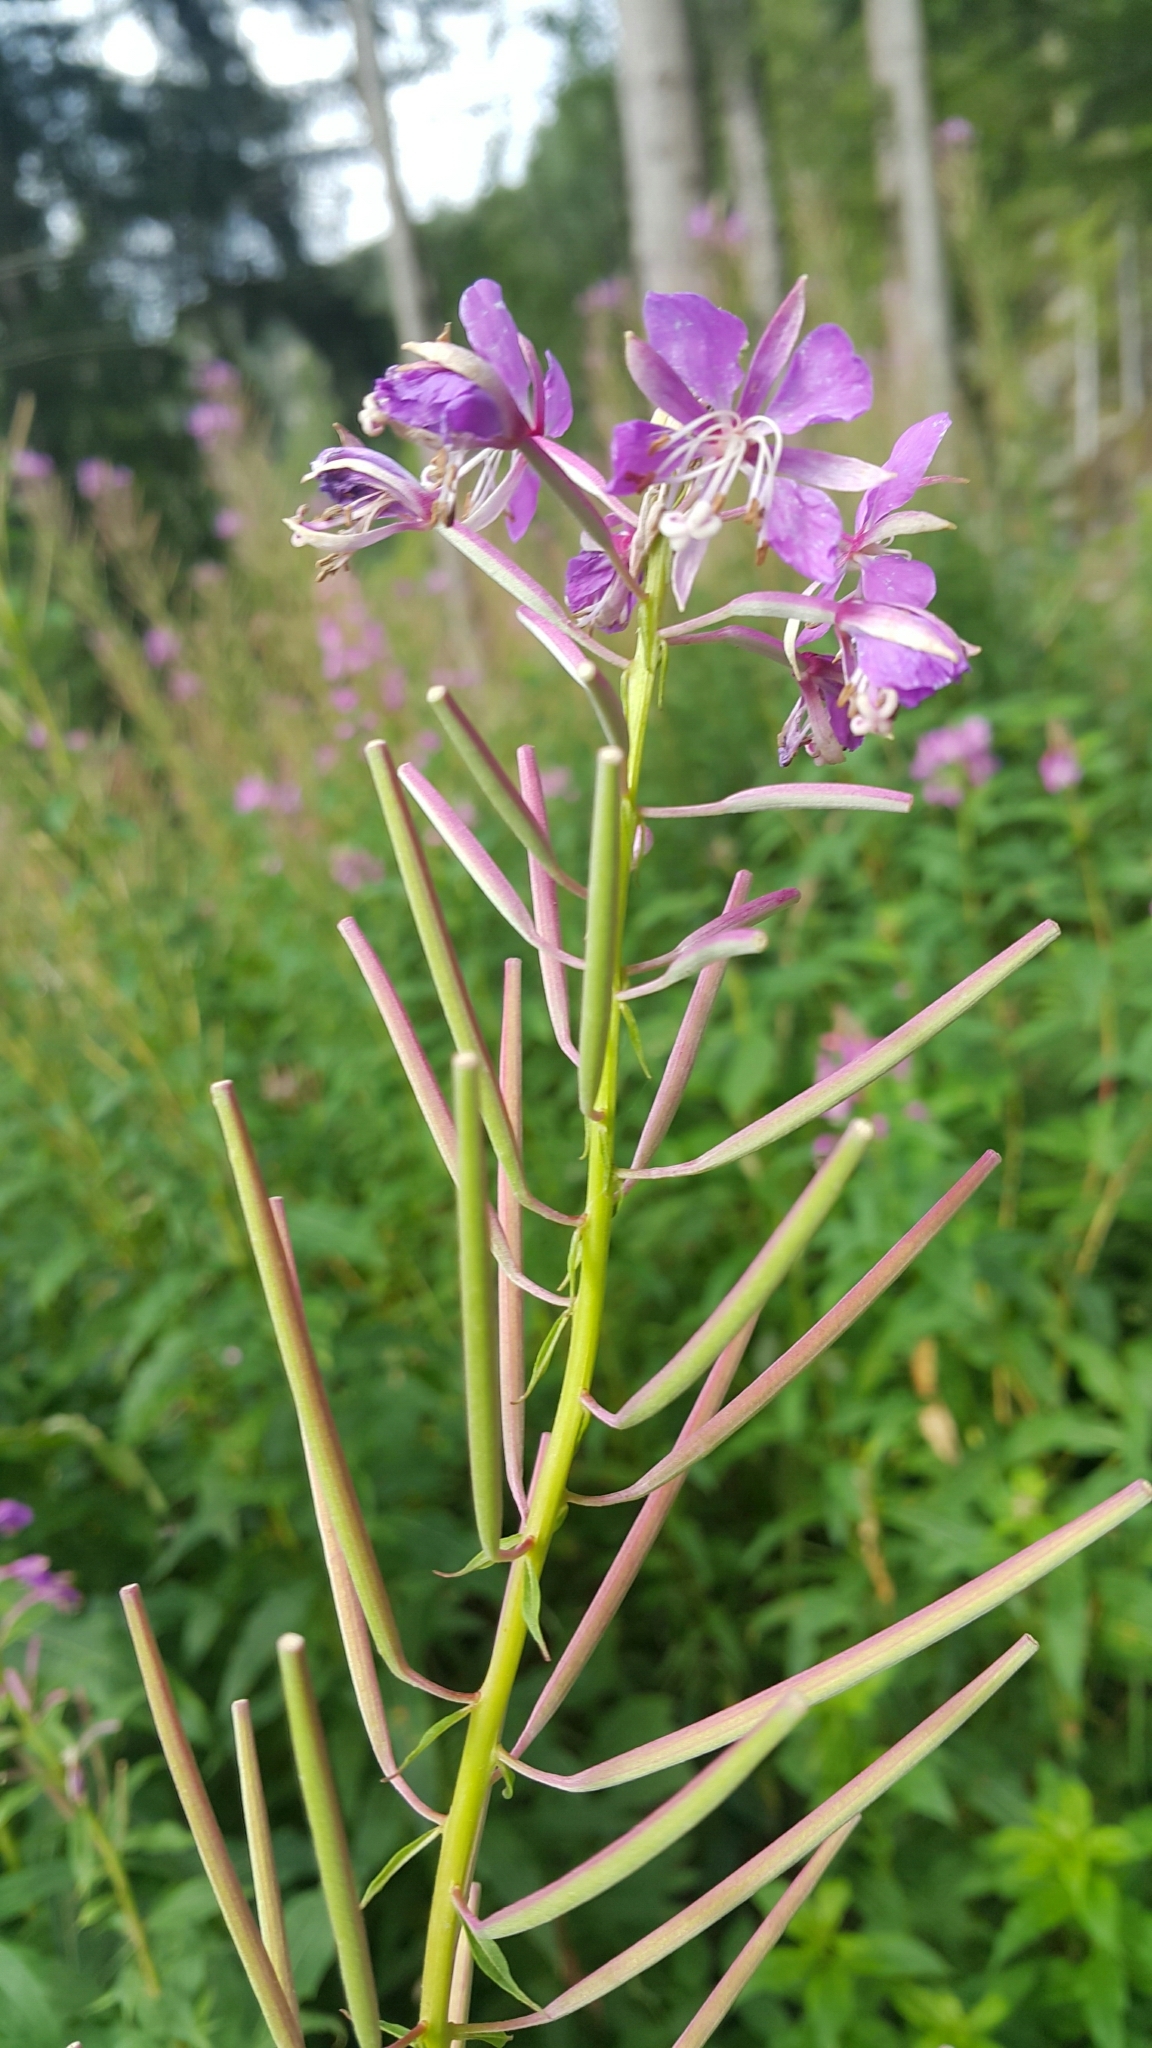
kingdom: Plantae
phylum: Tracheophyta
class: Magnoliopsida
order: Myrtales
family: Onagraceae
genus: Chamaenerion
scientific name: Chamaenerion angustifolium
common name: Fireweed
